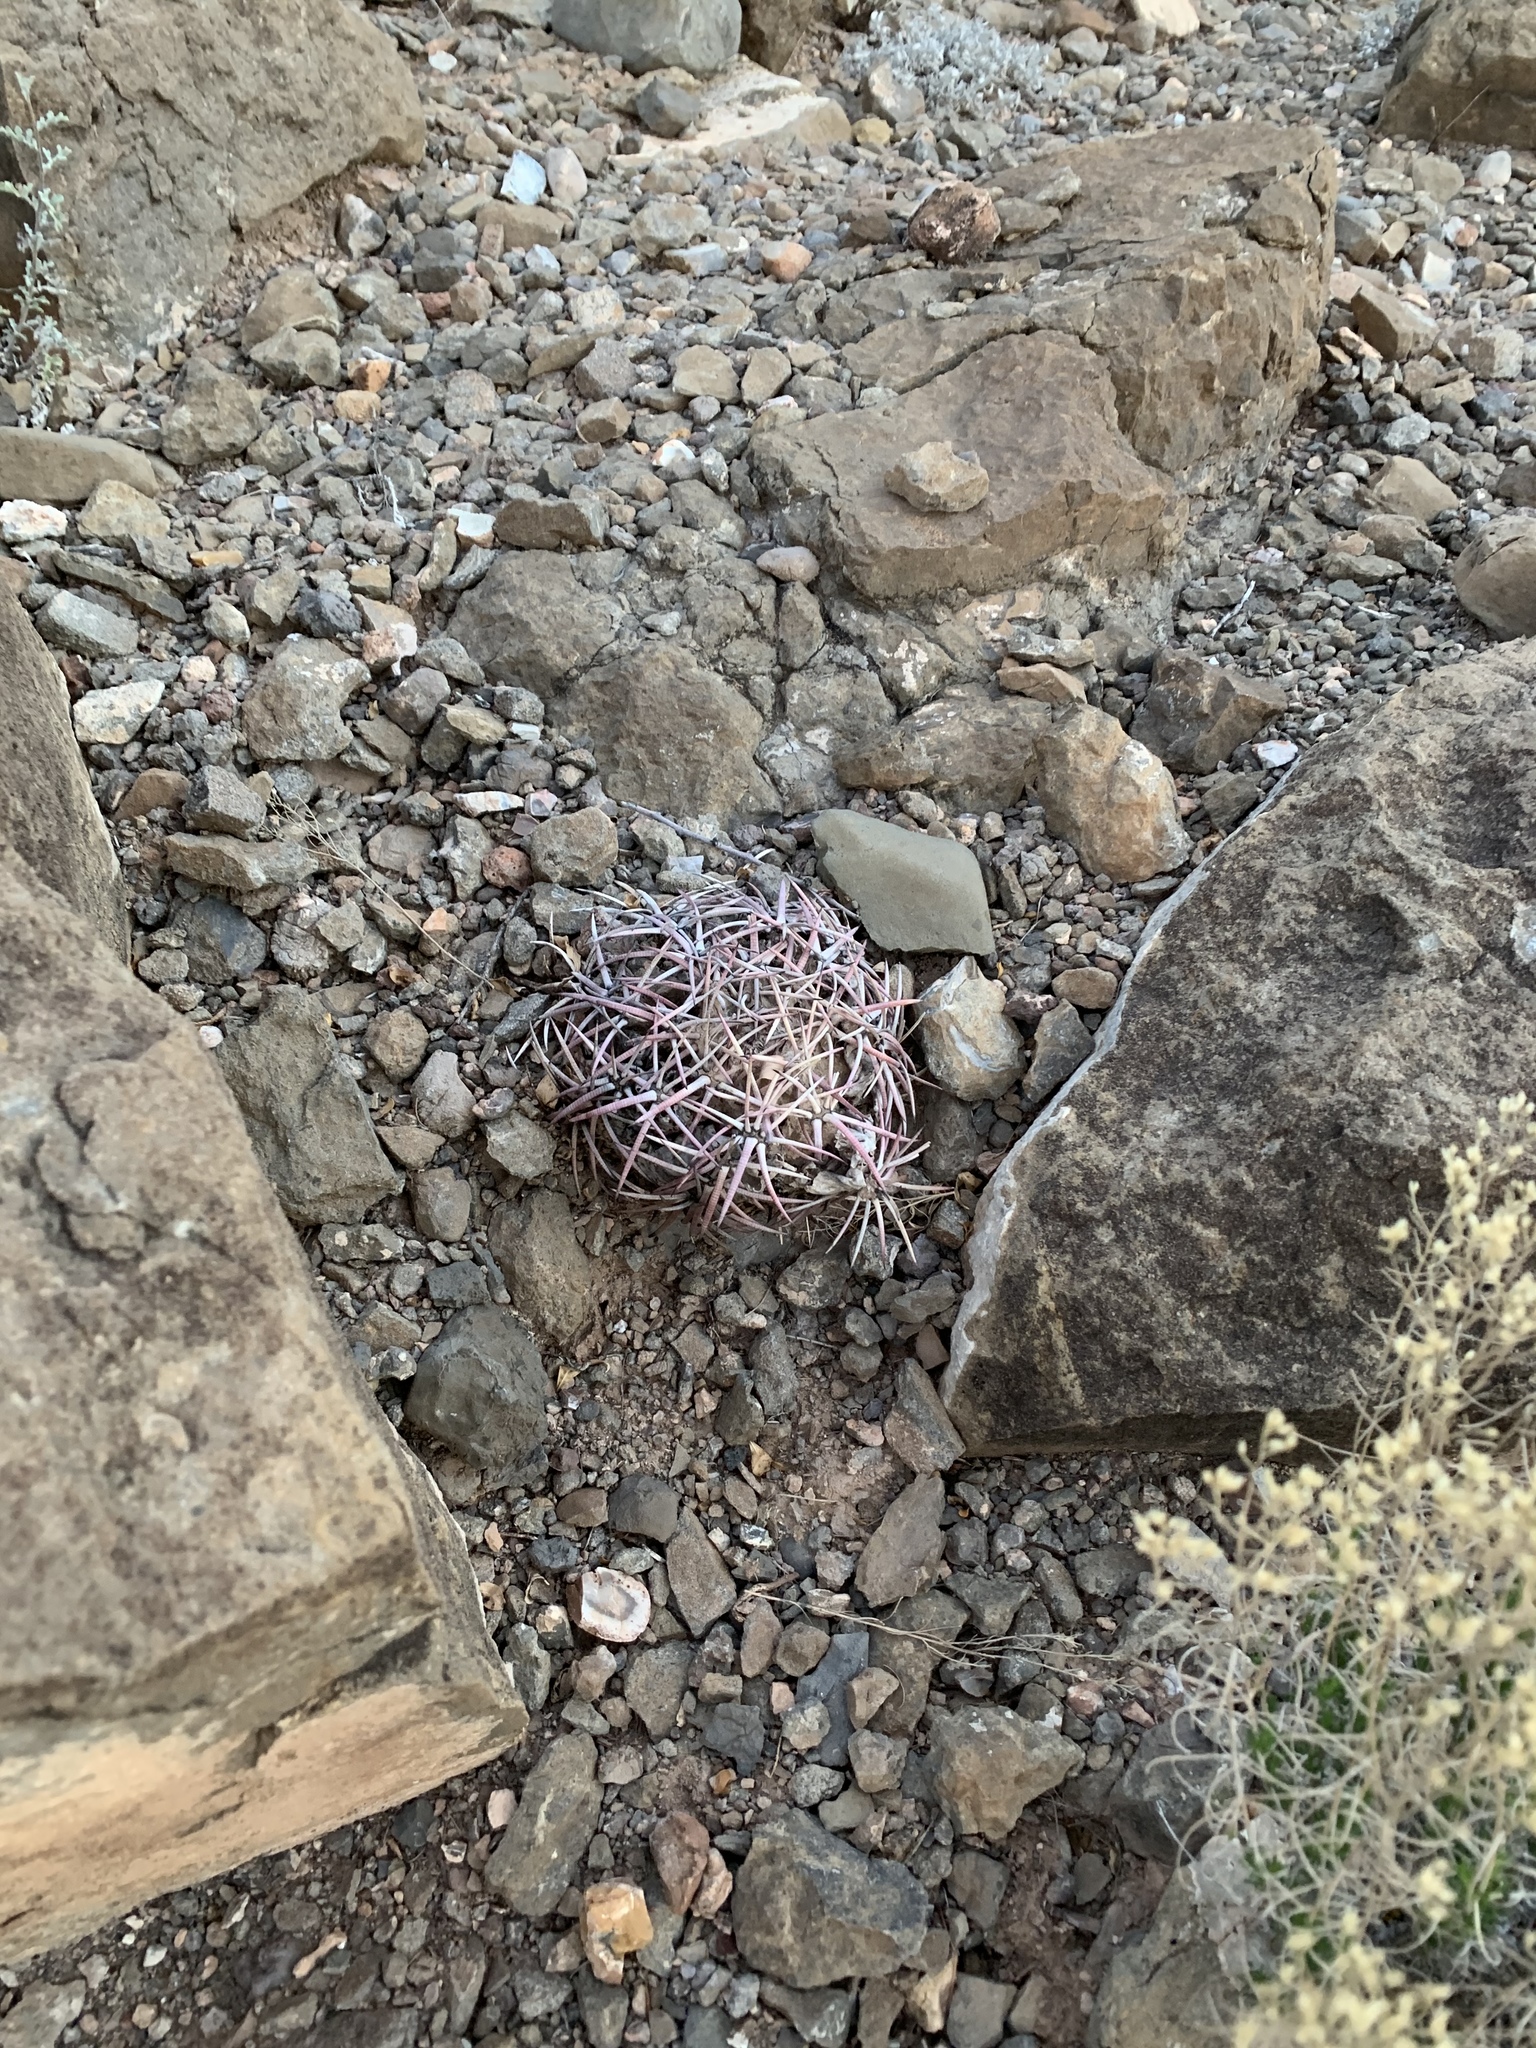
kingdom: Plantae
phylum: Tracheophyta
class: Magnoliopsida
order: Caryophyllales
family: Cactaceae
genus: Echinocactus
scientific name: Echinocactus horizonthalonius
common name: Devilshead
